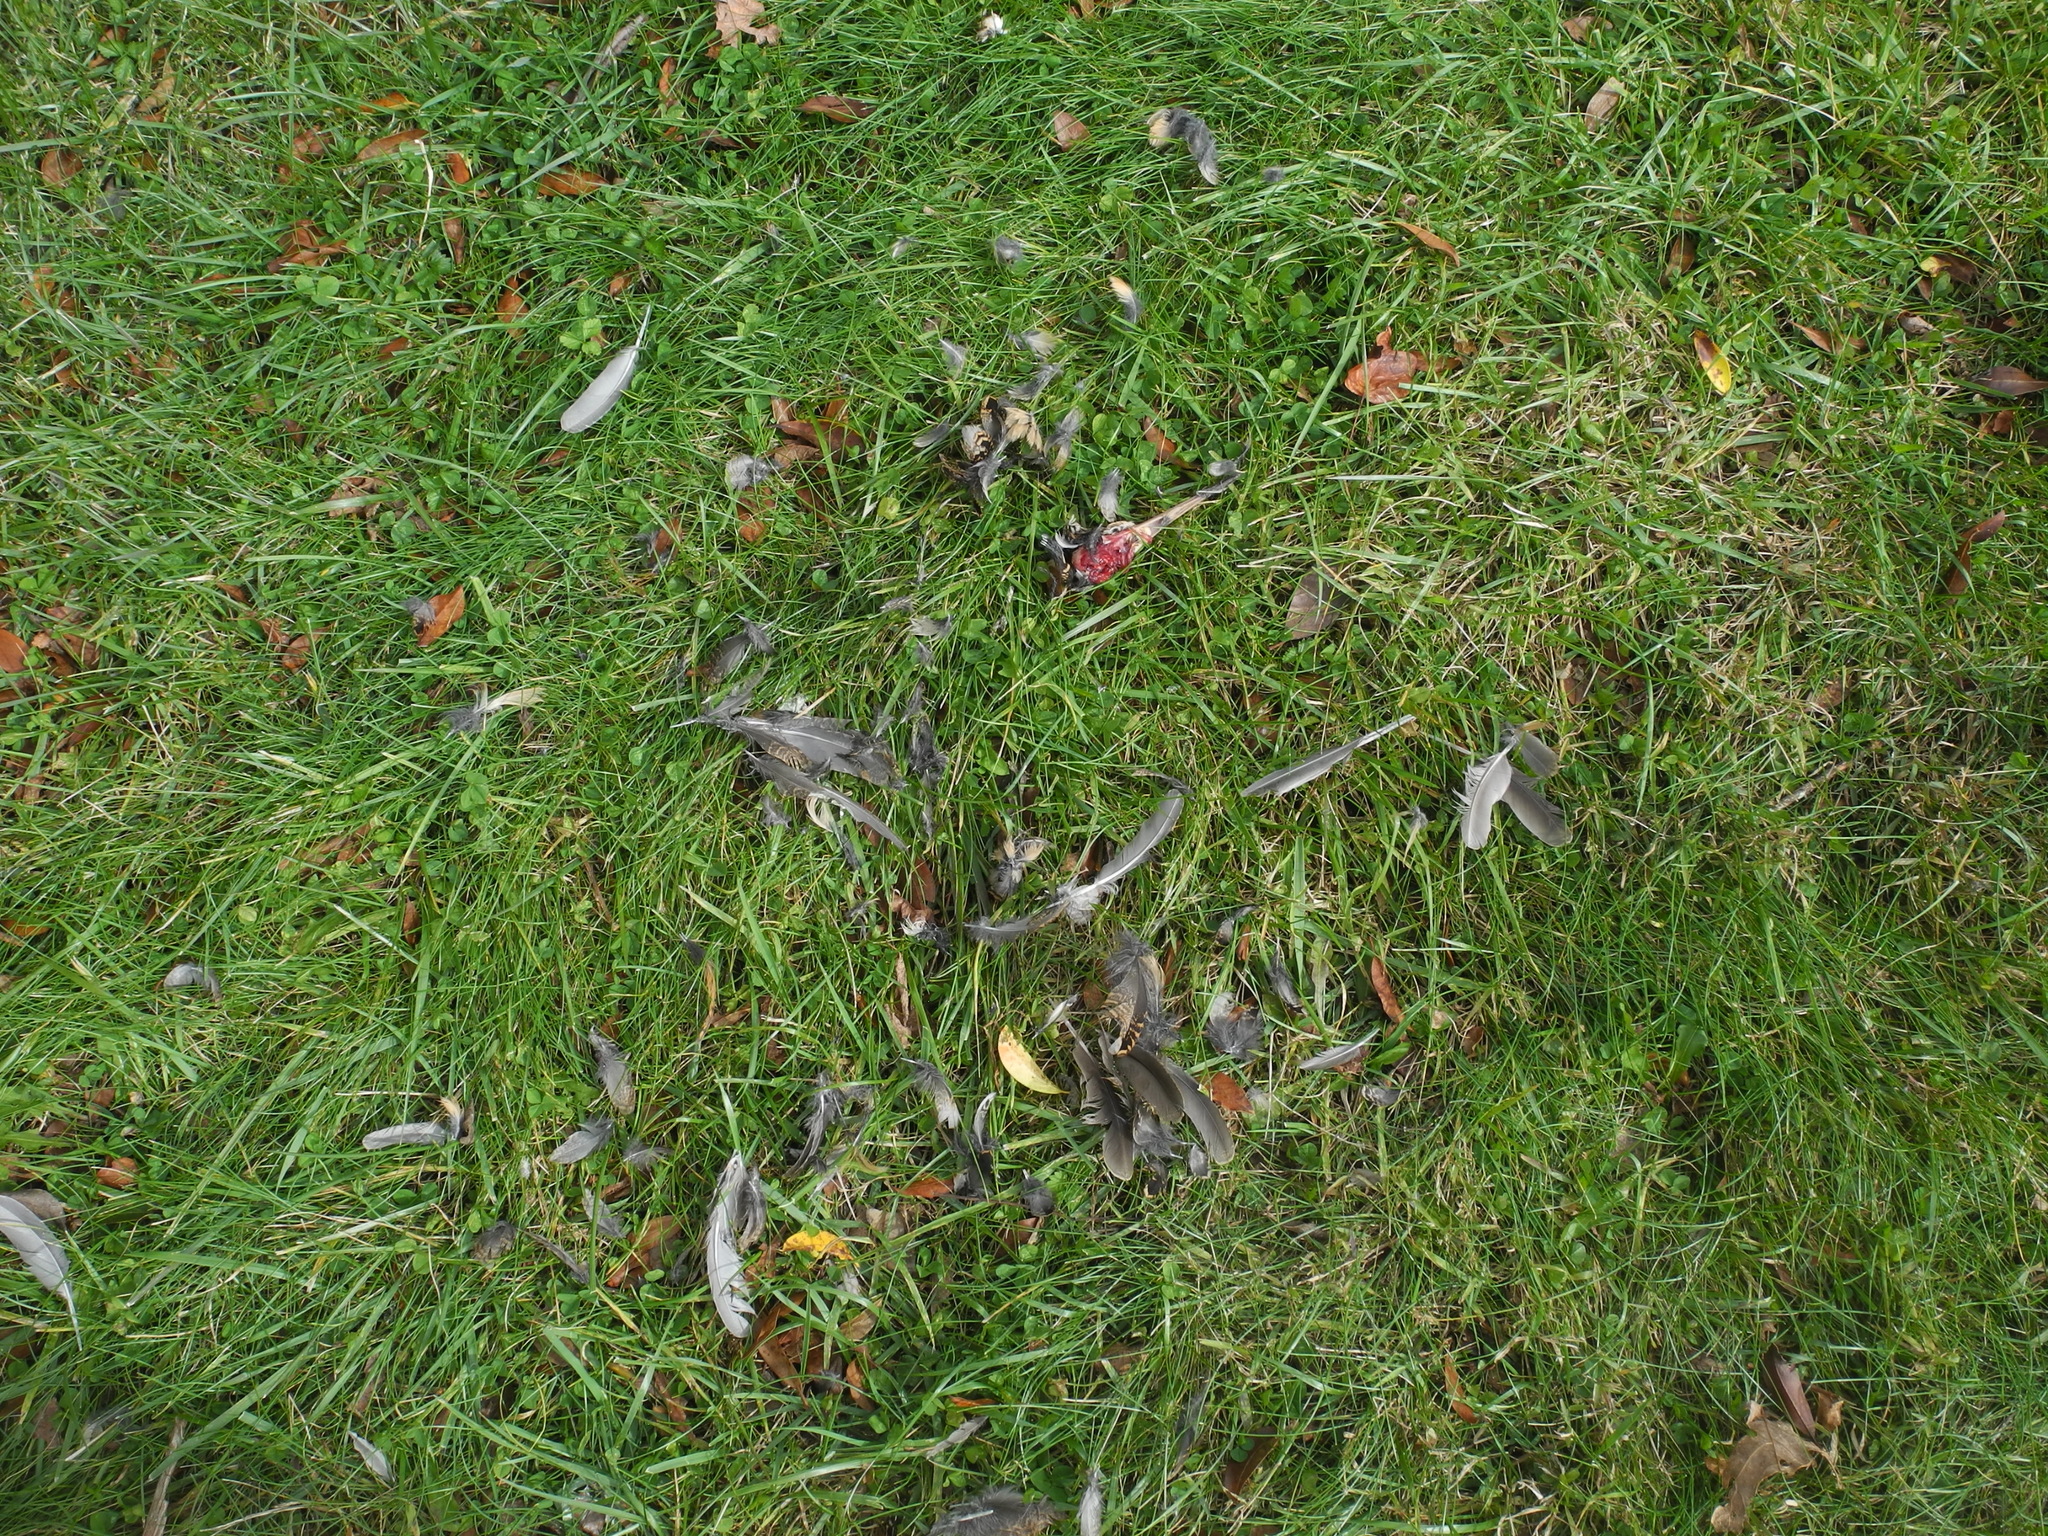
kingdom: Animalia
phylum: Chordata
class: Aves
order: Charadriiformes
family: Scolopacidae
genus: Scolopax
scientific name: Scolopax minor
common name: American woodcock
